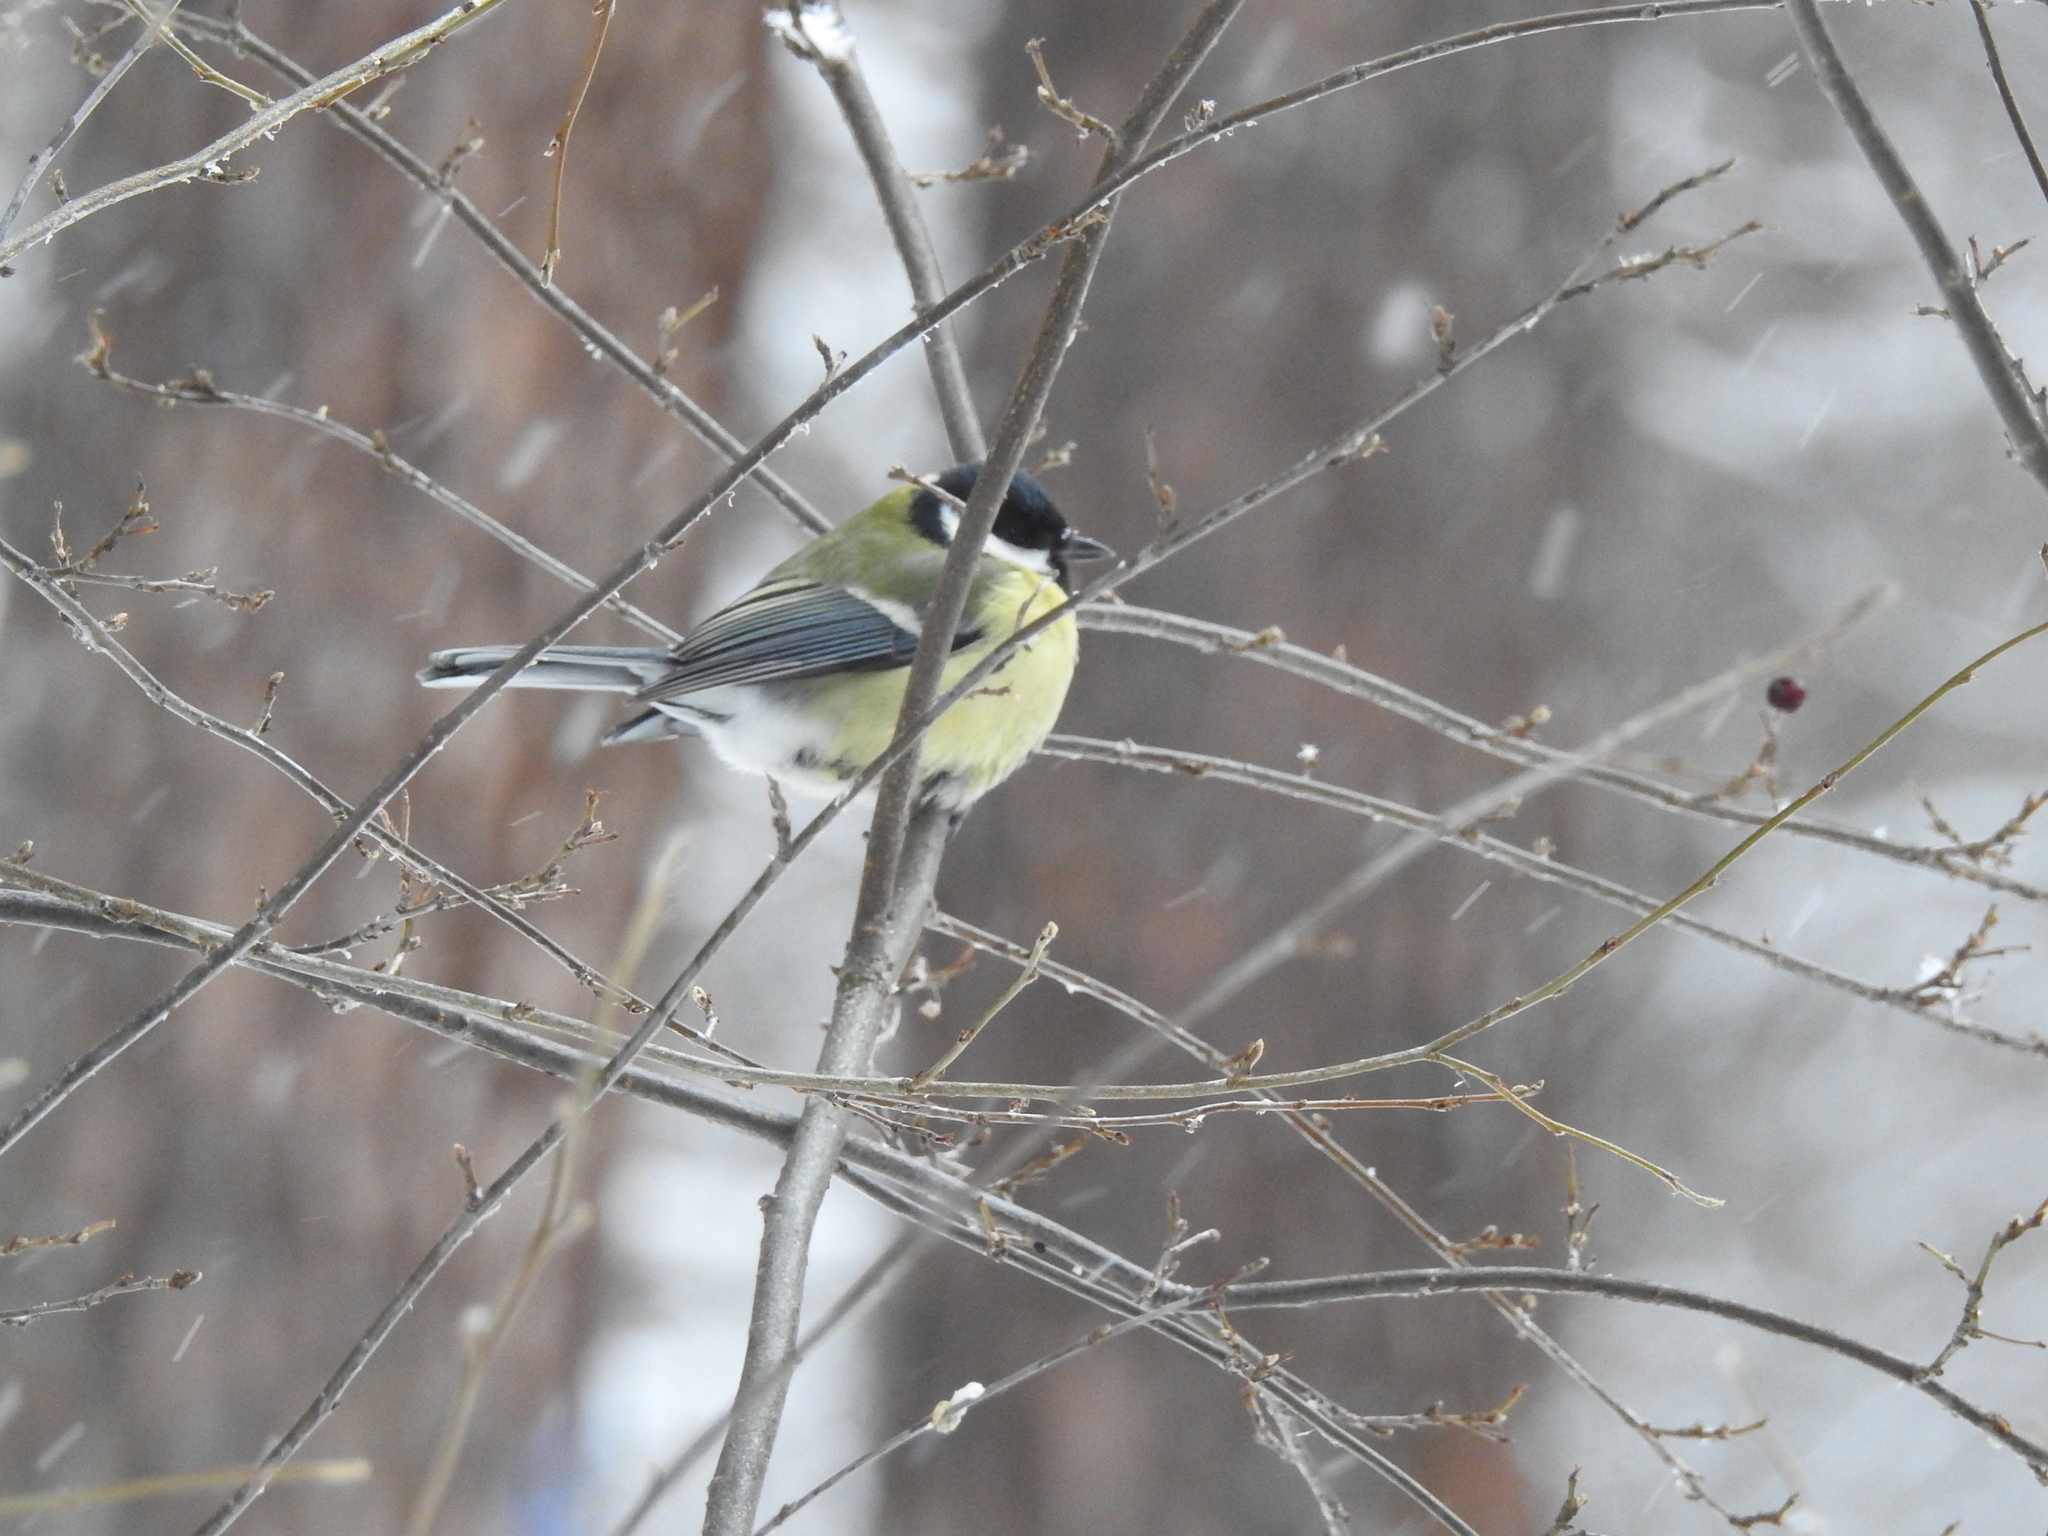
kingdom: Animalia
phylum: Chordata
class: Aves
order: Passeriformes
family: Paridae
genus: Parus
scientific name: Parus major
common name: Great tit
